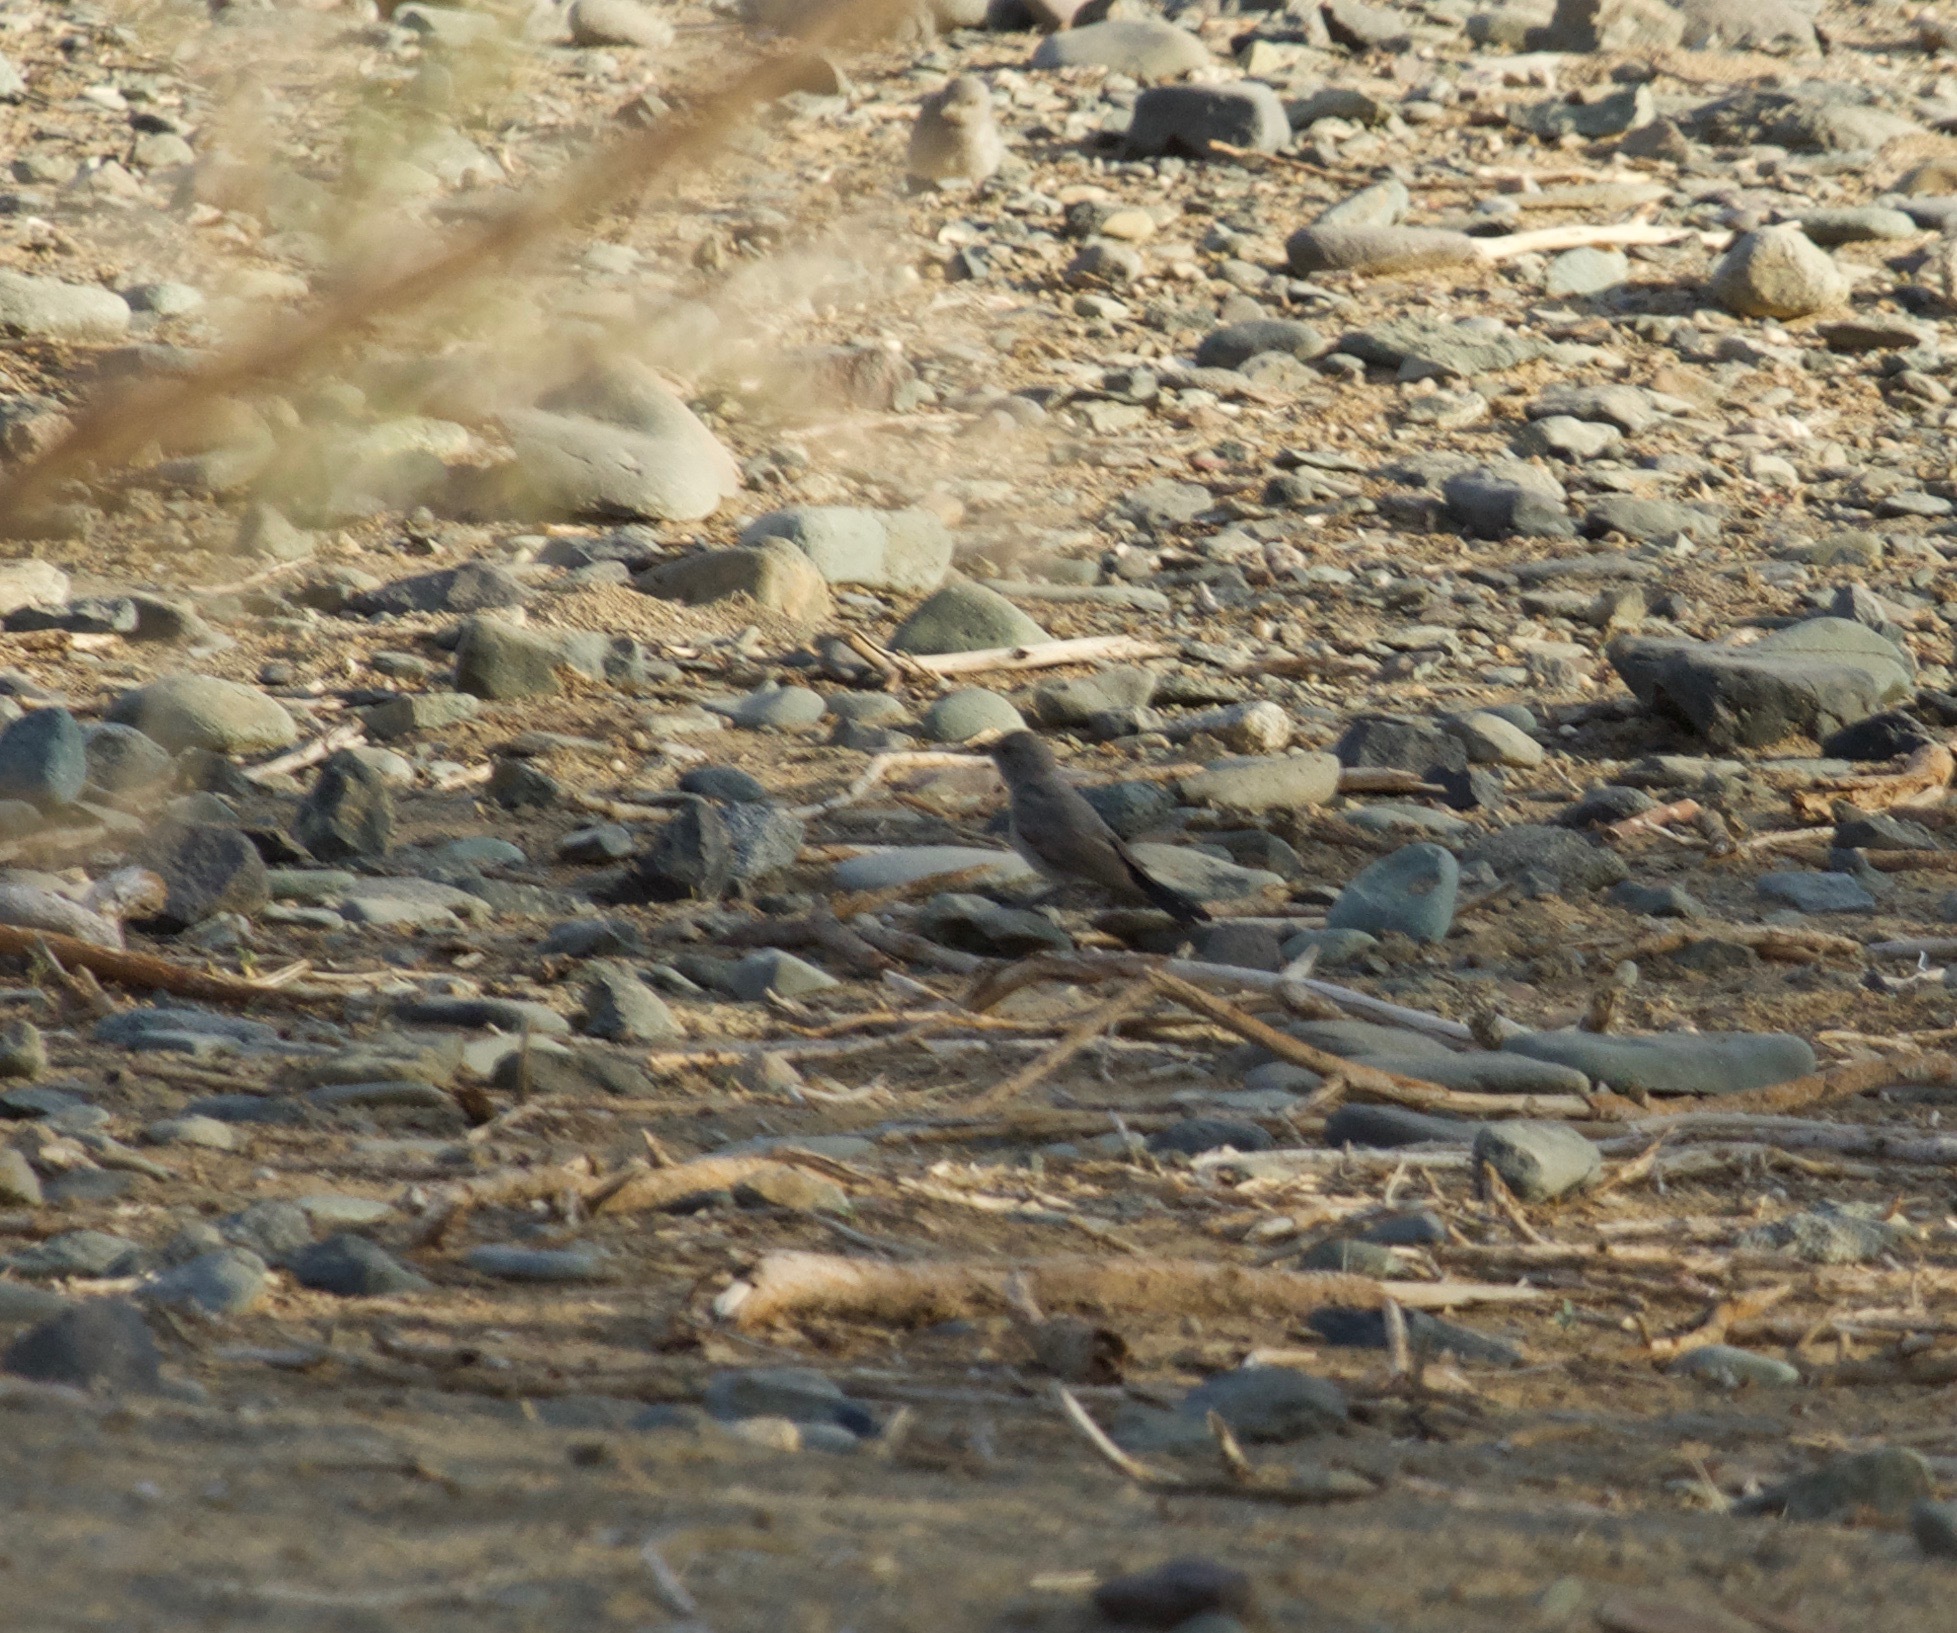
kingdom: Animalia
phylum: Chordata
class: Aves
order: Passeriformes
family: Muscicapidae
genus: Oenanthe
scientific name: Oenanthe melanura
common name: Blackstart
